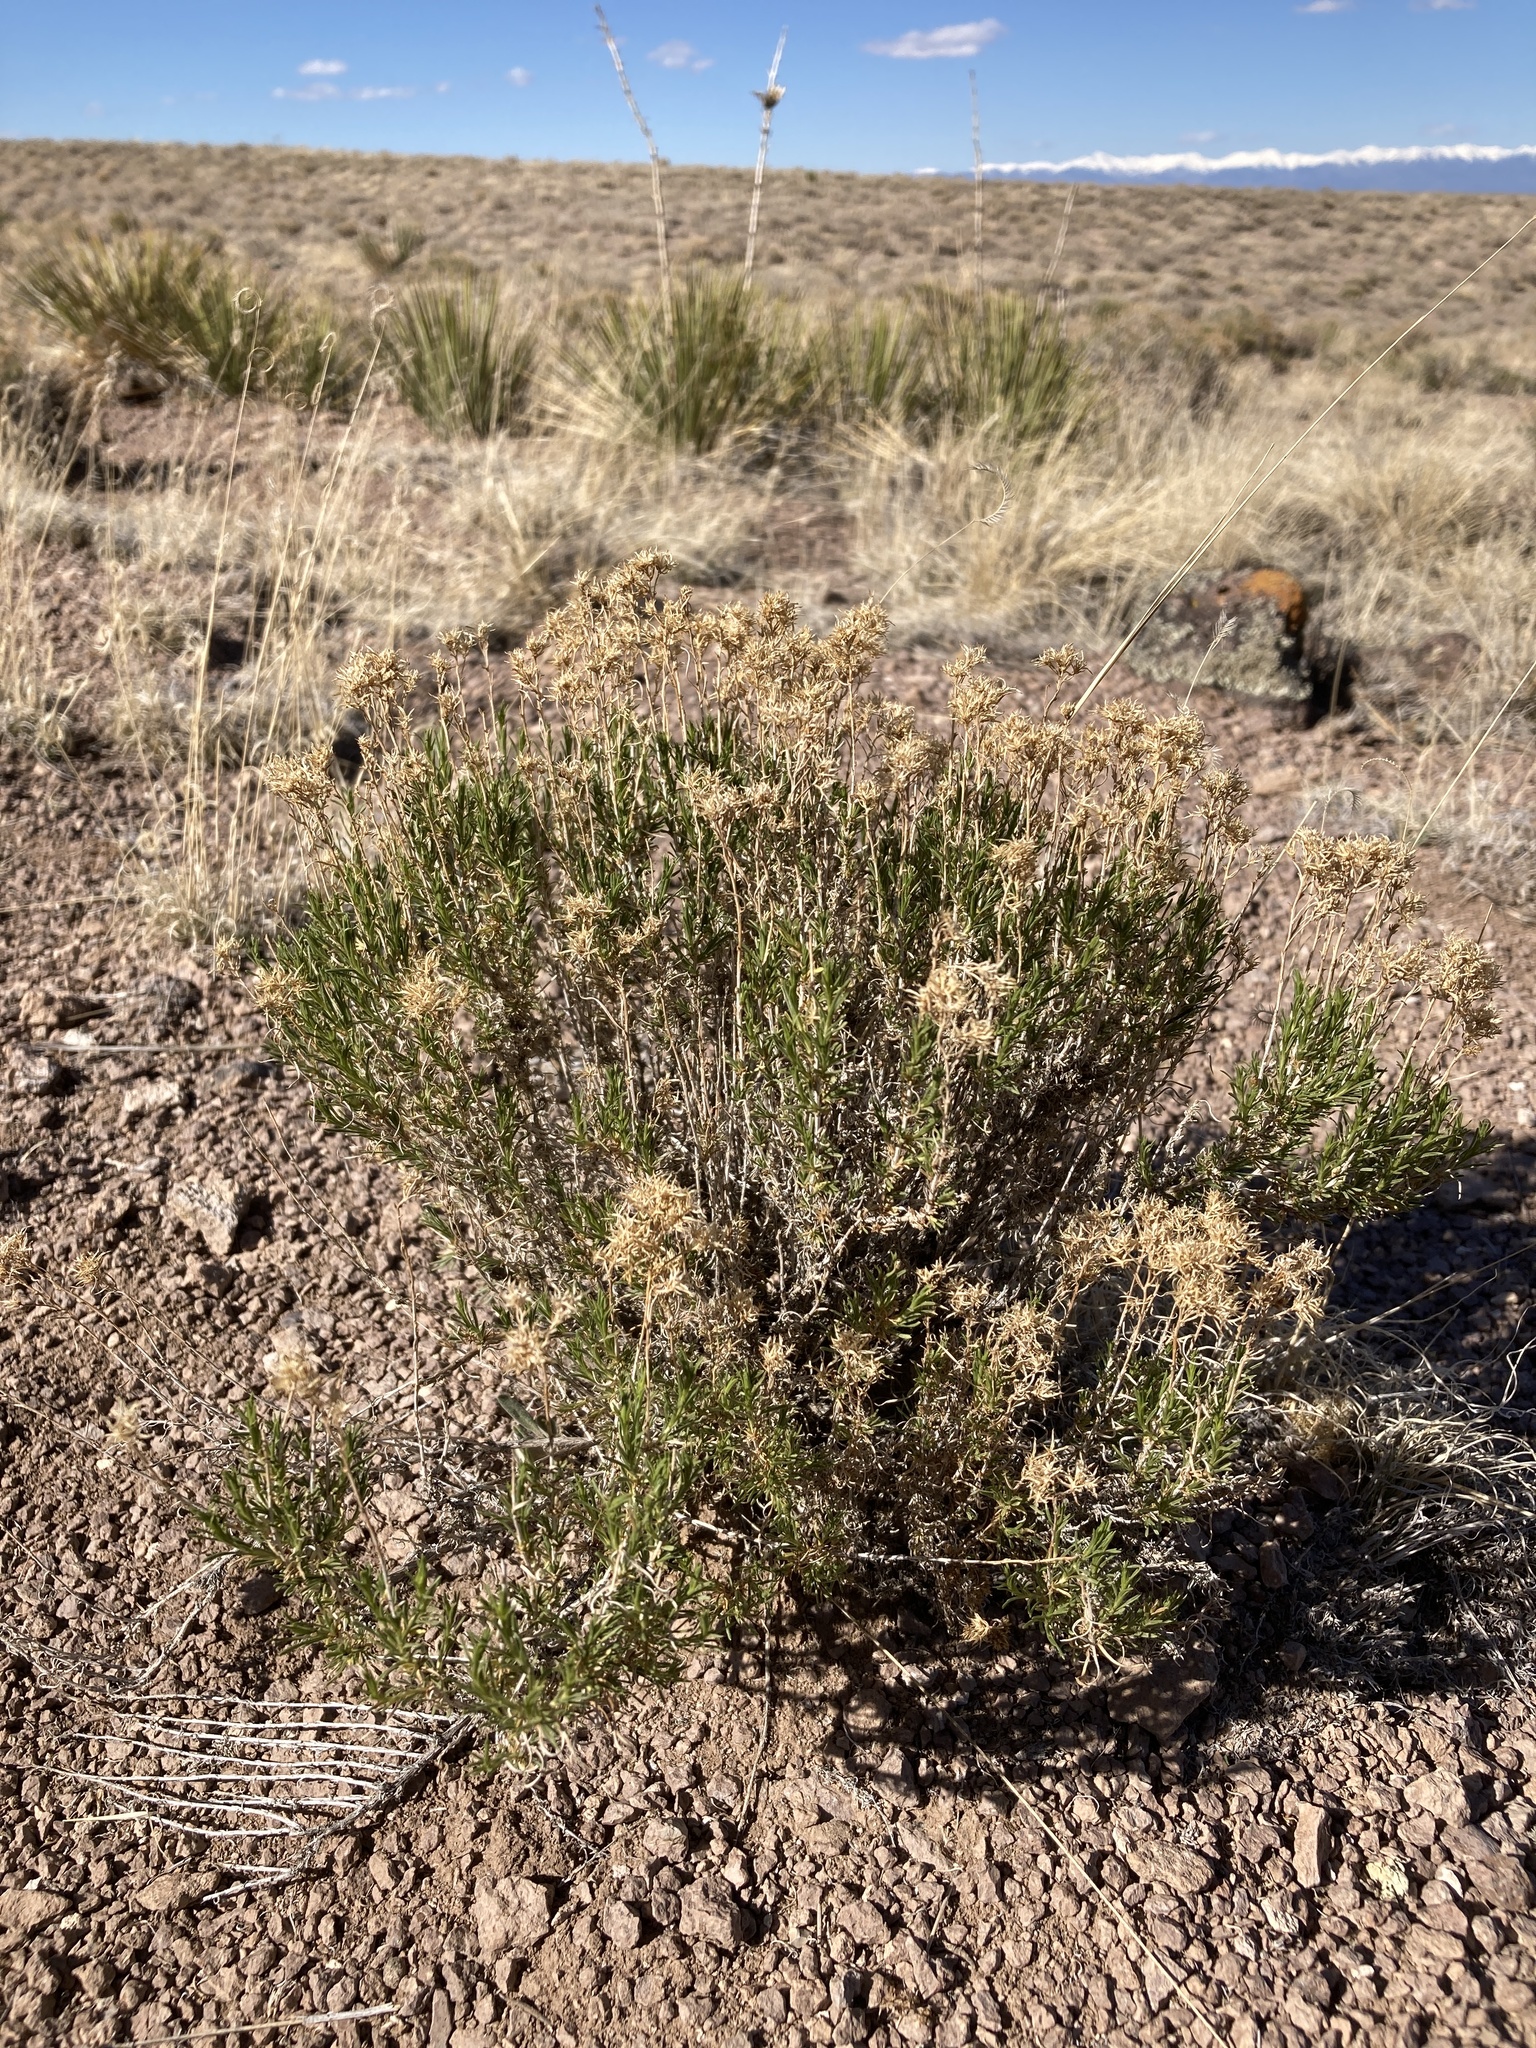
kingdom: Plantae
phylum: Tracheophyta
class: Magnoliopsida
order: Asterales
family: Asteraceae
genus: Chrysothamnus
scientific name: Chrysothamnus greenei
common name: Greene's rabbitbrush
